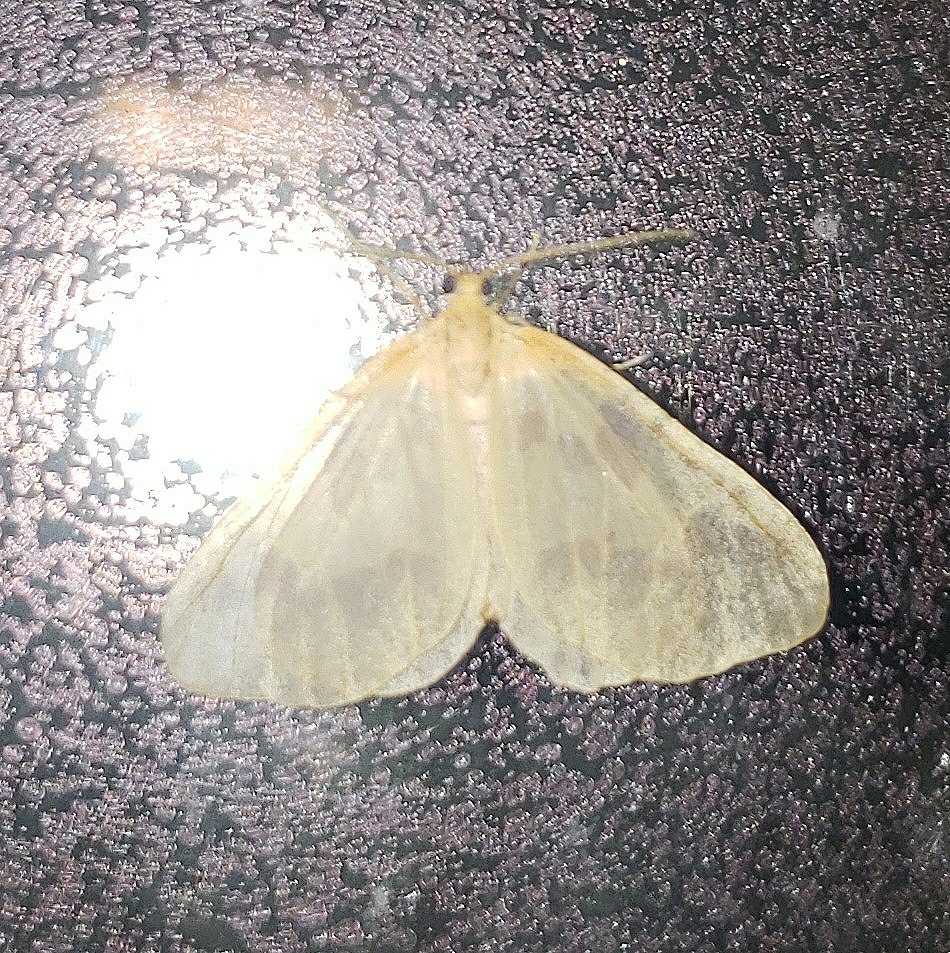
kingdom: Animalia
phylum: Arthropoda
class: Insecta
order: Lepidoptera
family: Geometridae
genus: Eubaphe
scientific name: Eubaphe mendica
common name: Beggar
